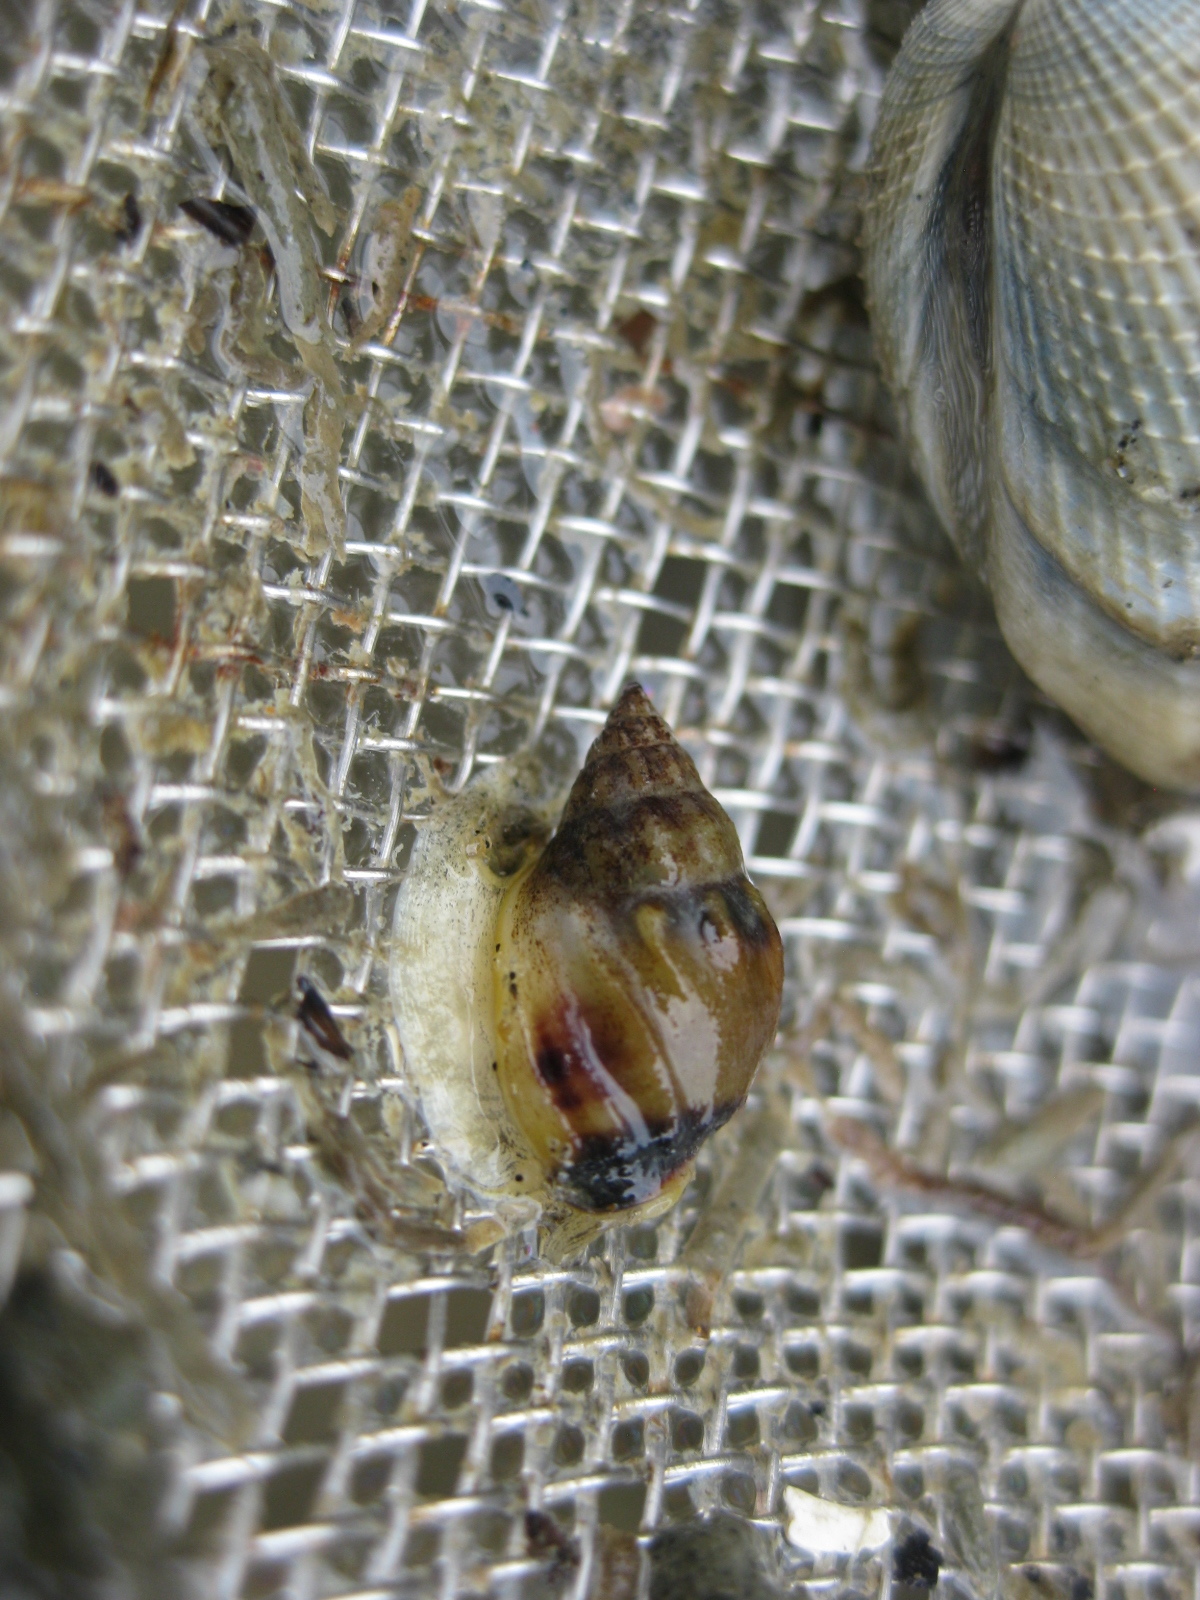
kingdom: Animalia
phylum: Mollusca
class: Gastropoda
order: Neogastropoda
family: Nassariidae
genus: Tritia
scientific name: Tritia burchardi
